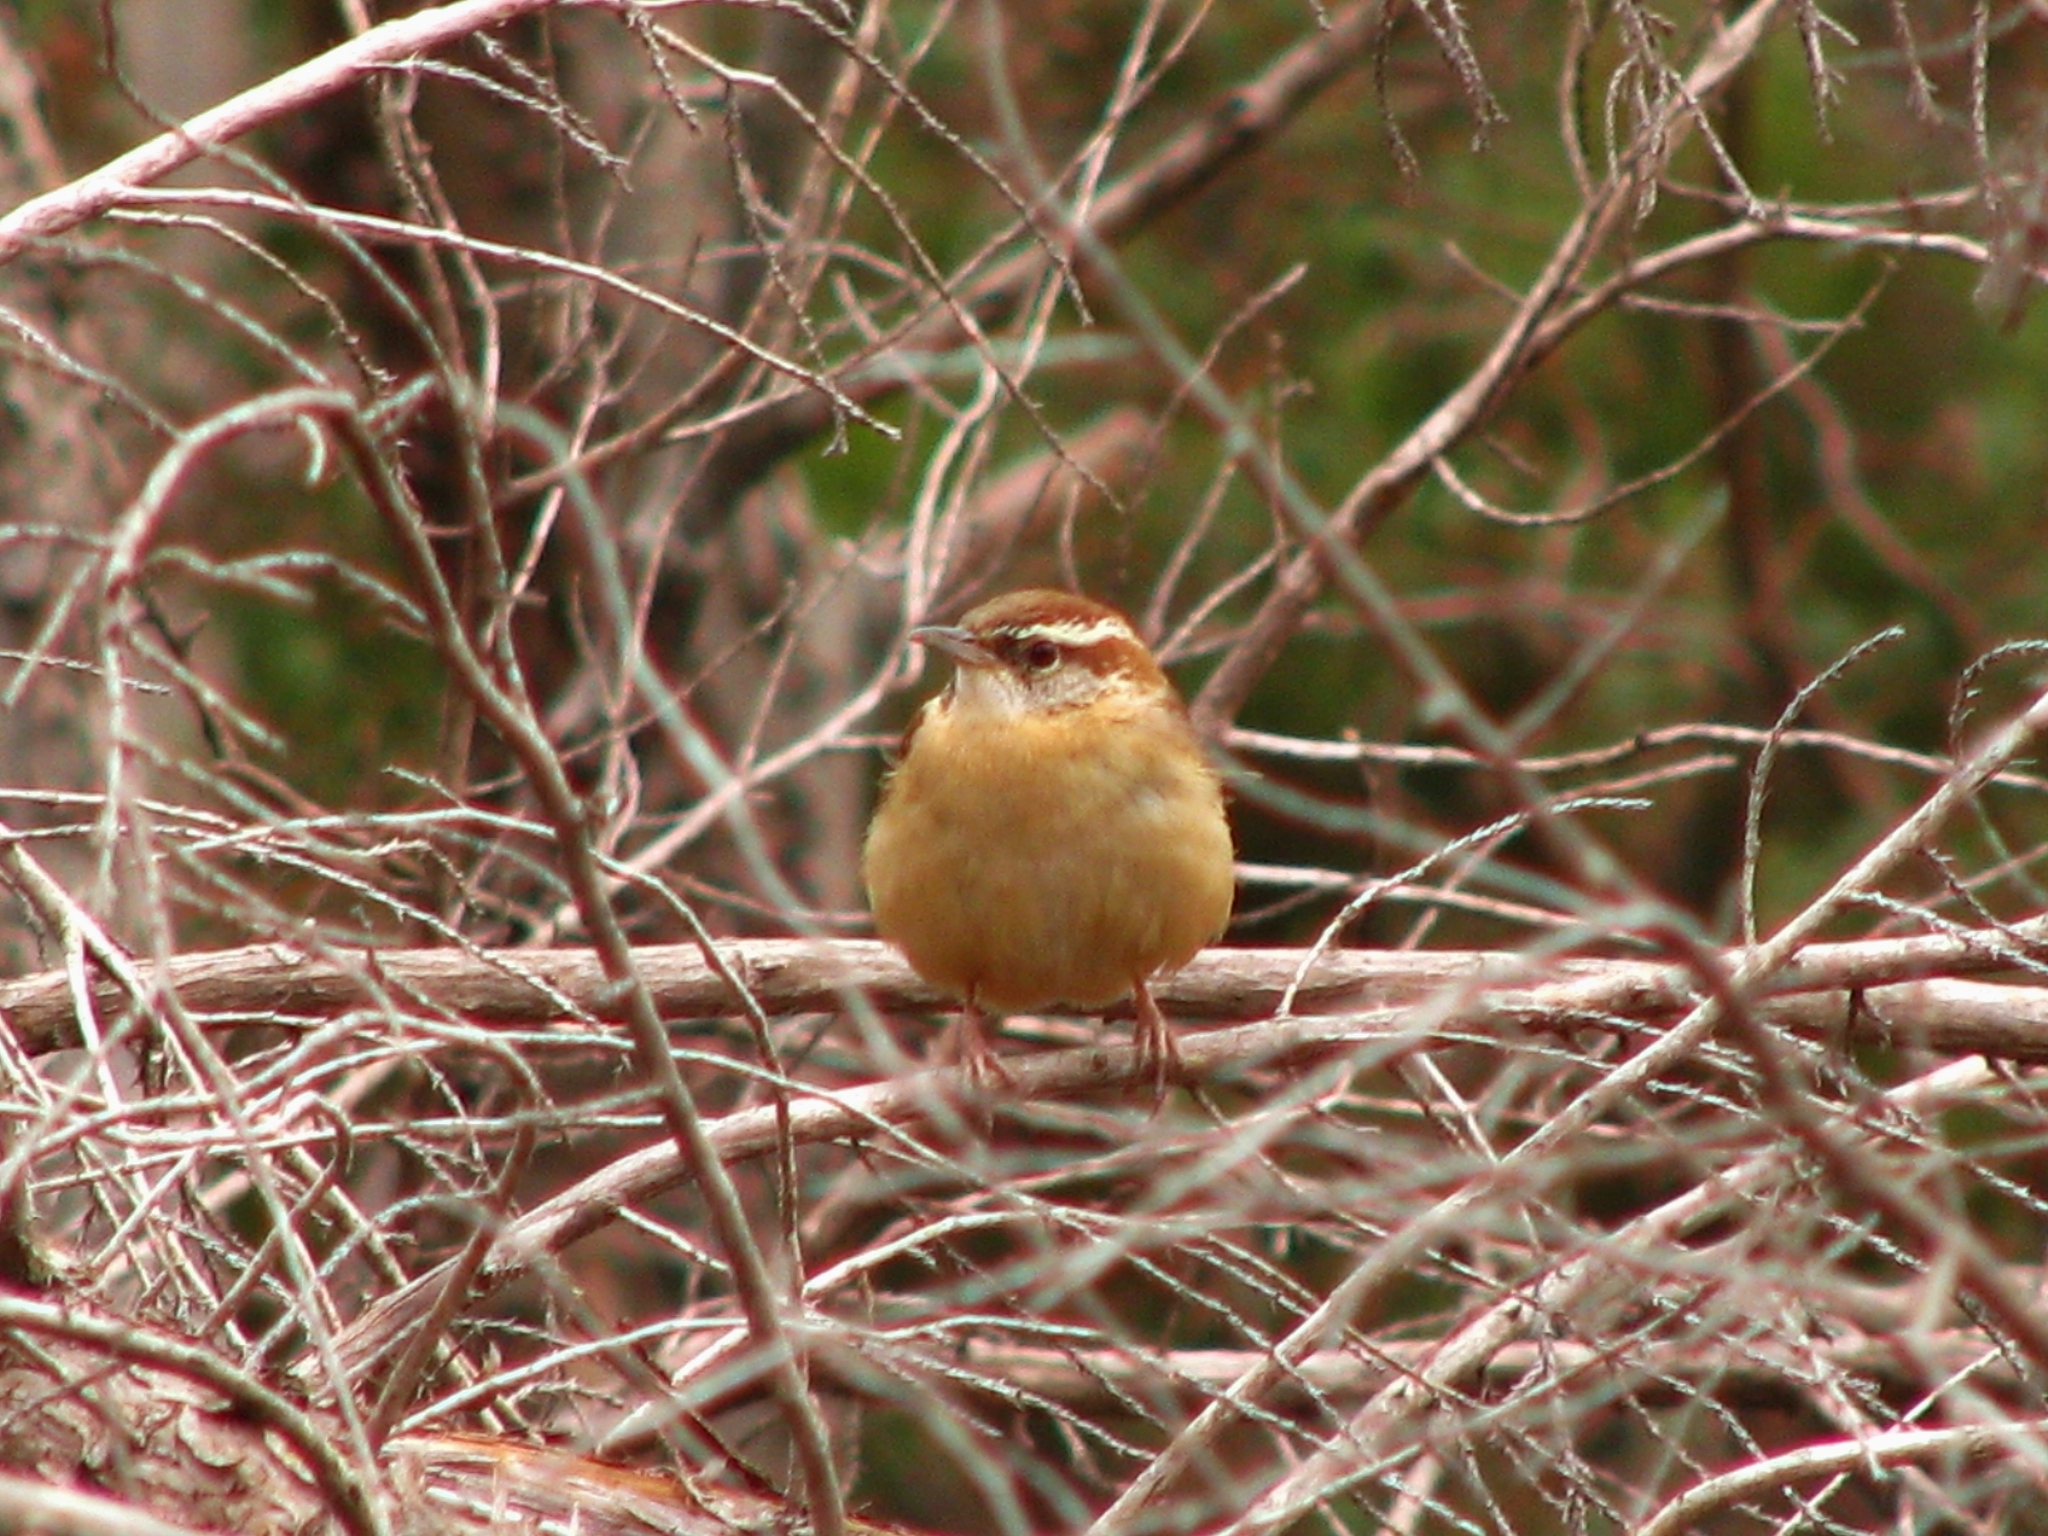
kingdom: Animalia
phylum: Chordata
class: Aves
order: Passeriformes
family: Troglodytidae
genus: Thryothorus
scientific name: Thryothorus ludovicianus
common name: Carolina wren
